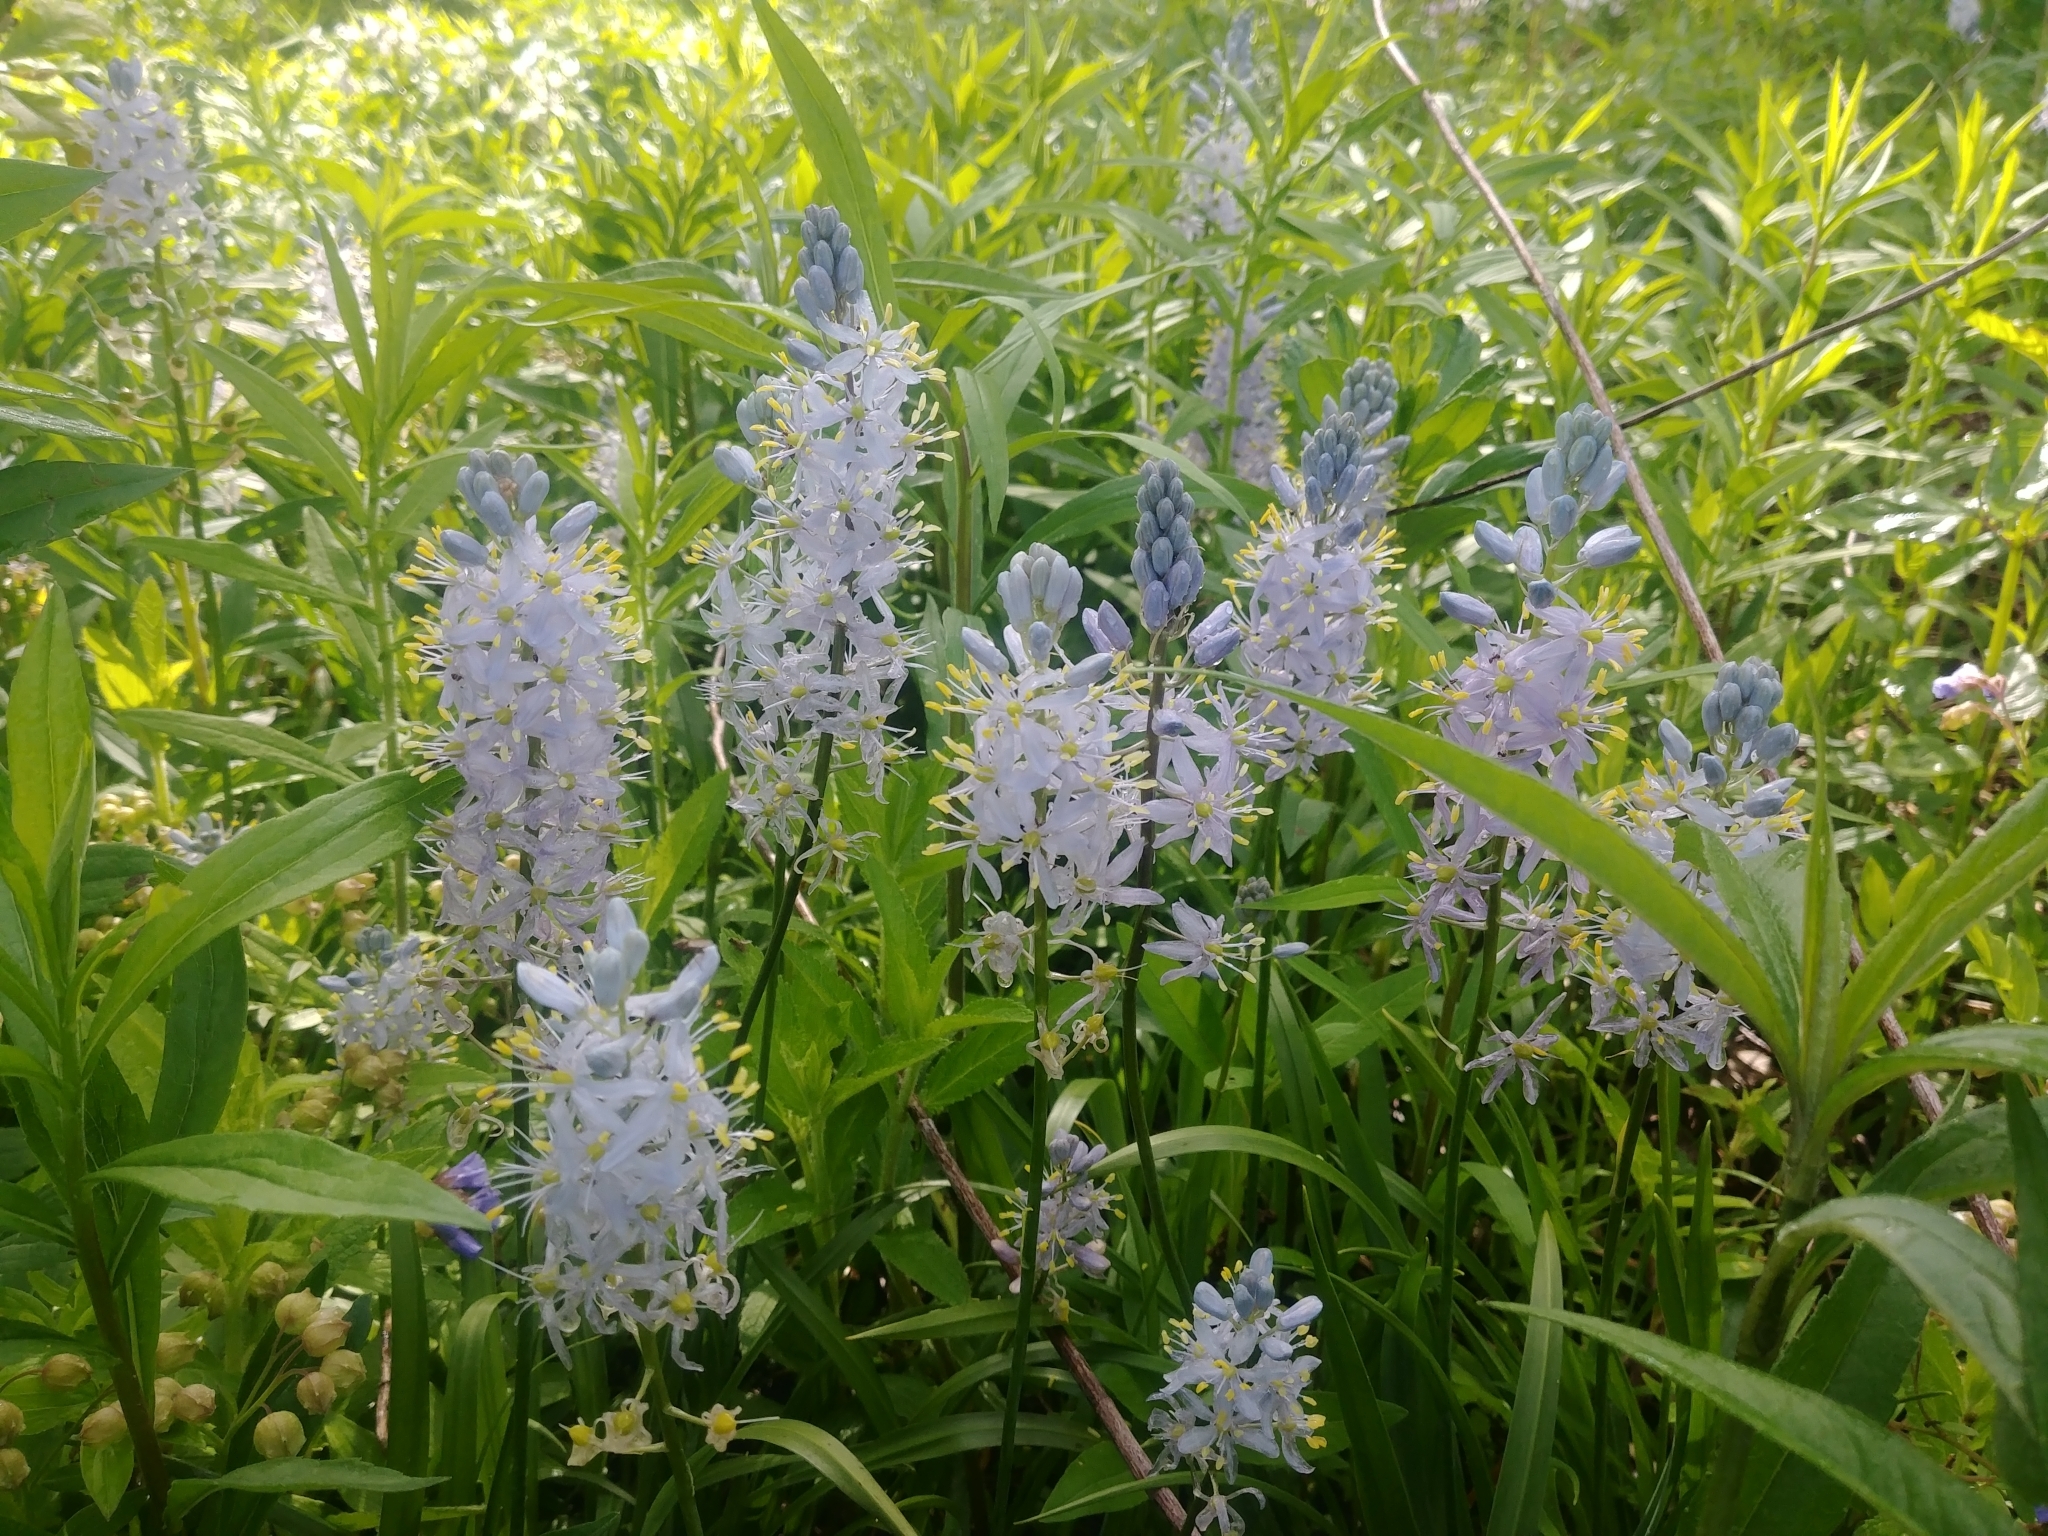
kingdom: Plantae
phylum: Tracheophyta
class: Liliopsida
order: Asparagales
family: Asparagaceae
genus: Camassia
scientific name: Camassia scilloides
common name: Wild hyacinth
